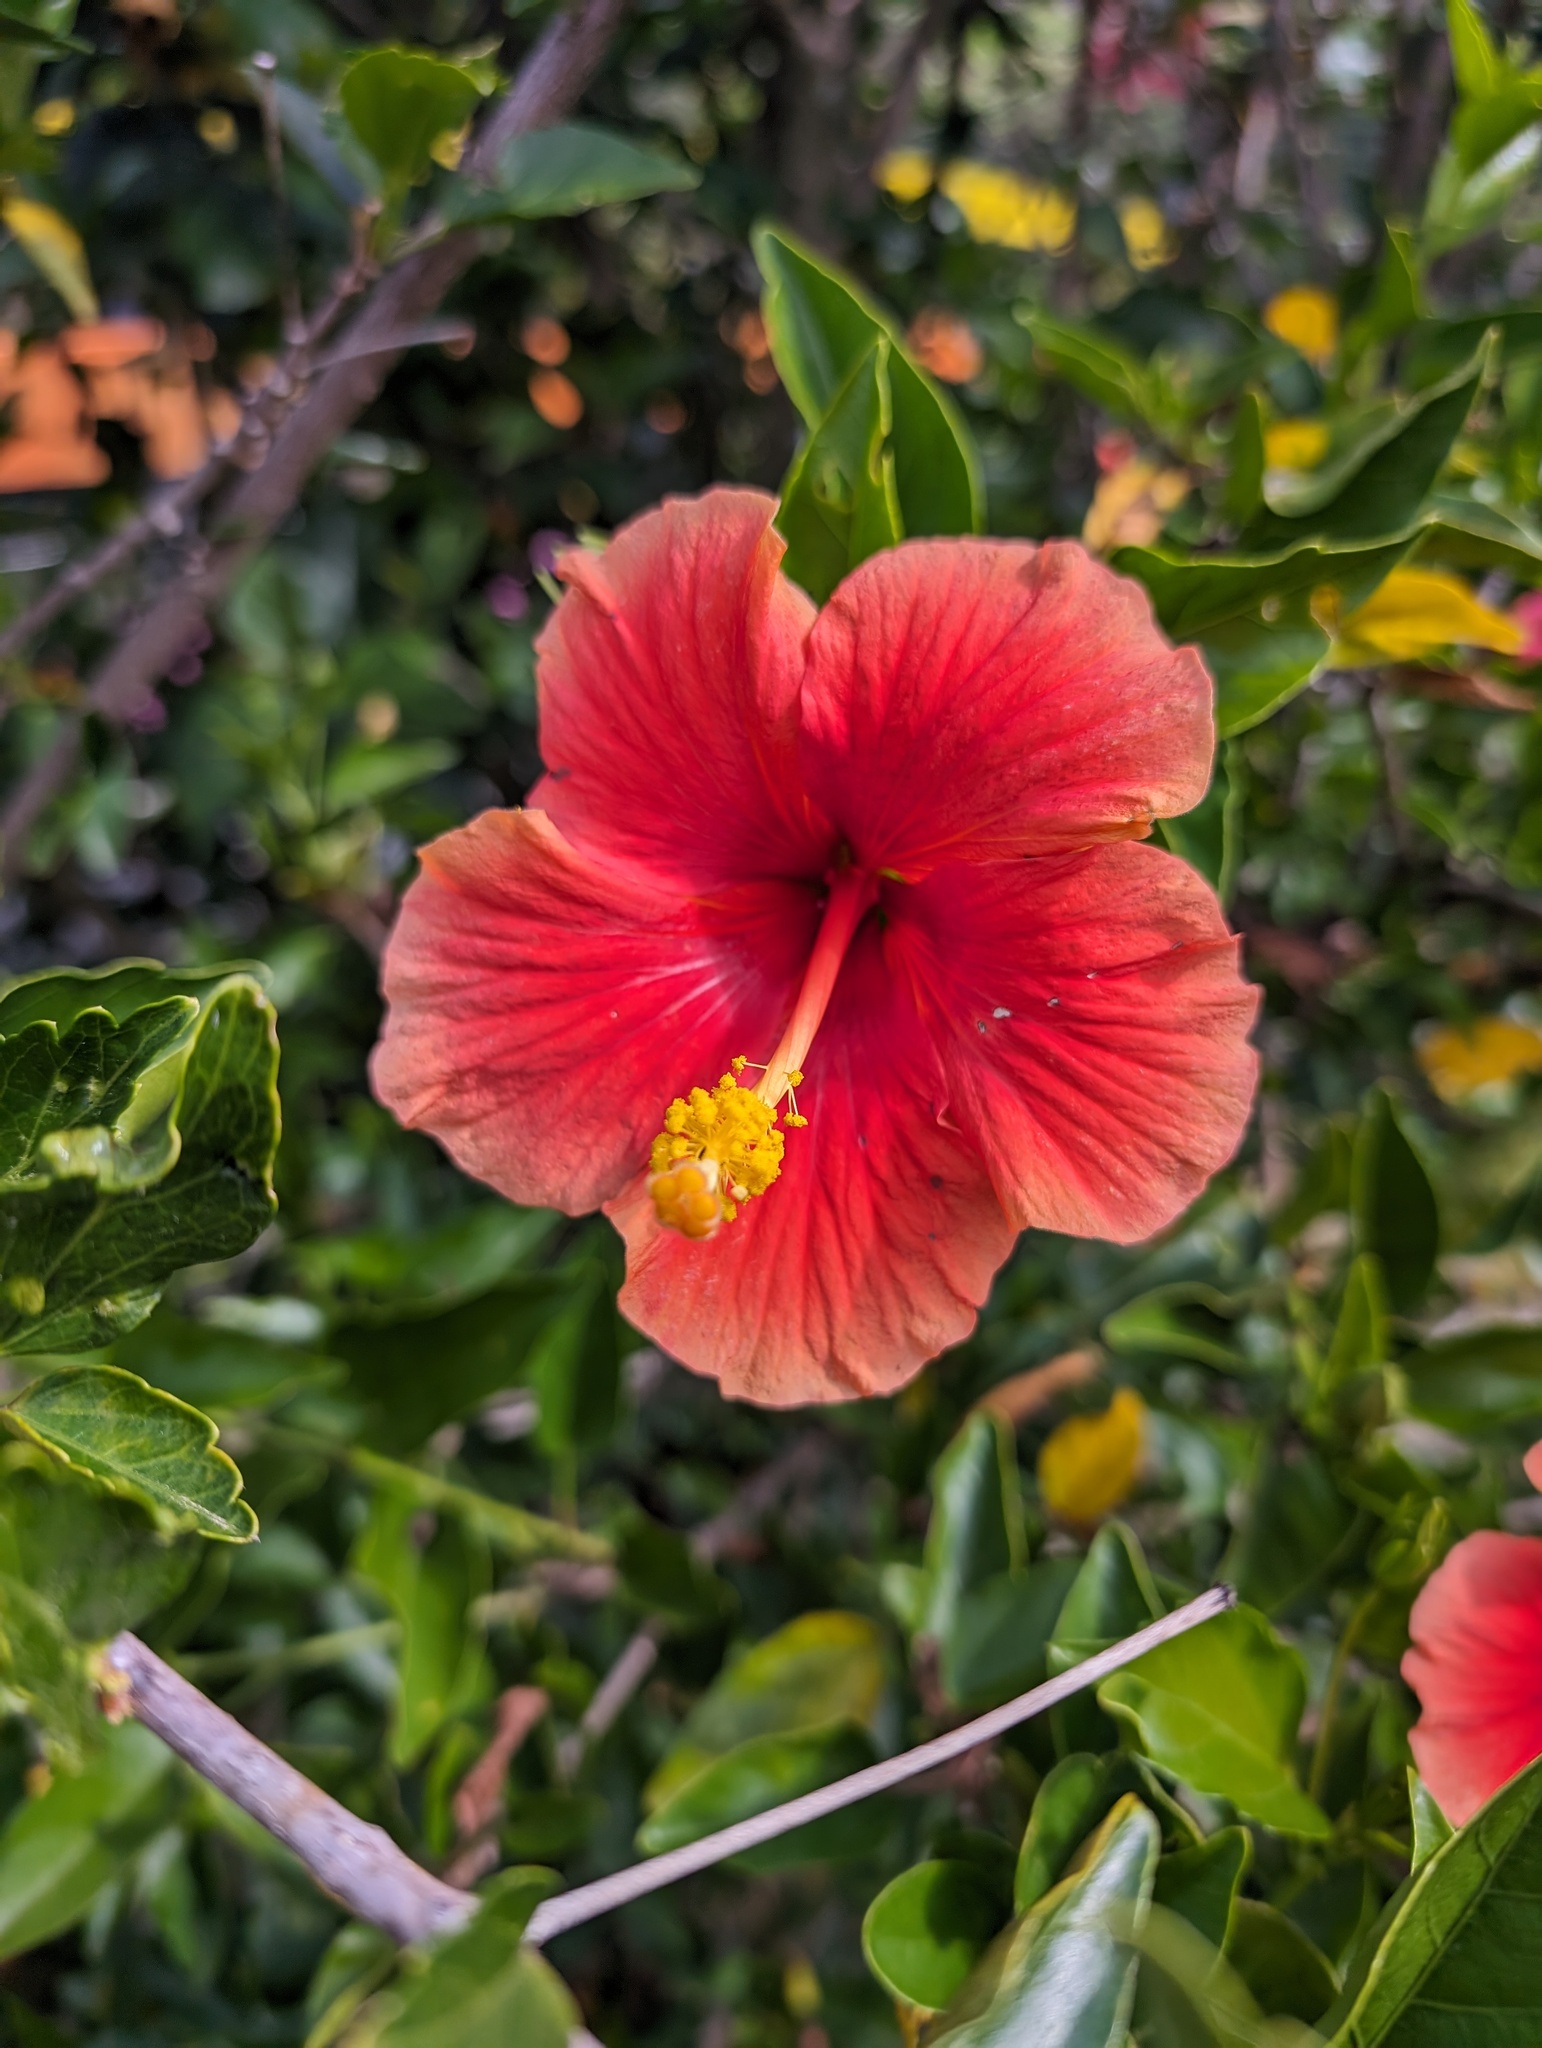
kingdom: Plantae
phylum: Tracheophyta
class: Magnoliopsida
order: Malvales
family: Malvaceae
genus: Hibiscus
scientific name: Hibiscus rosa-sinensis
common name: Hibiscus
